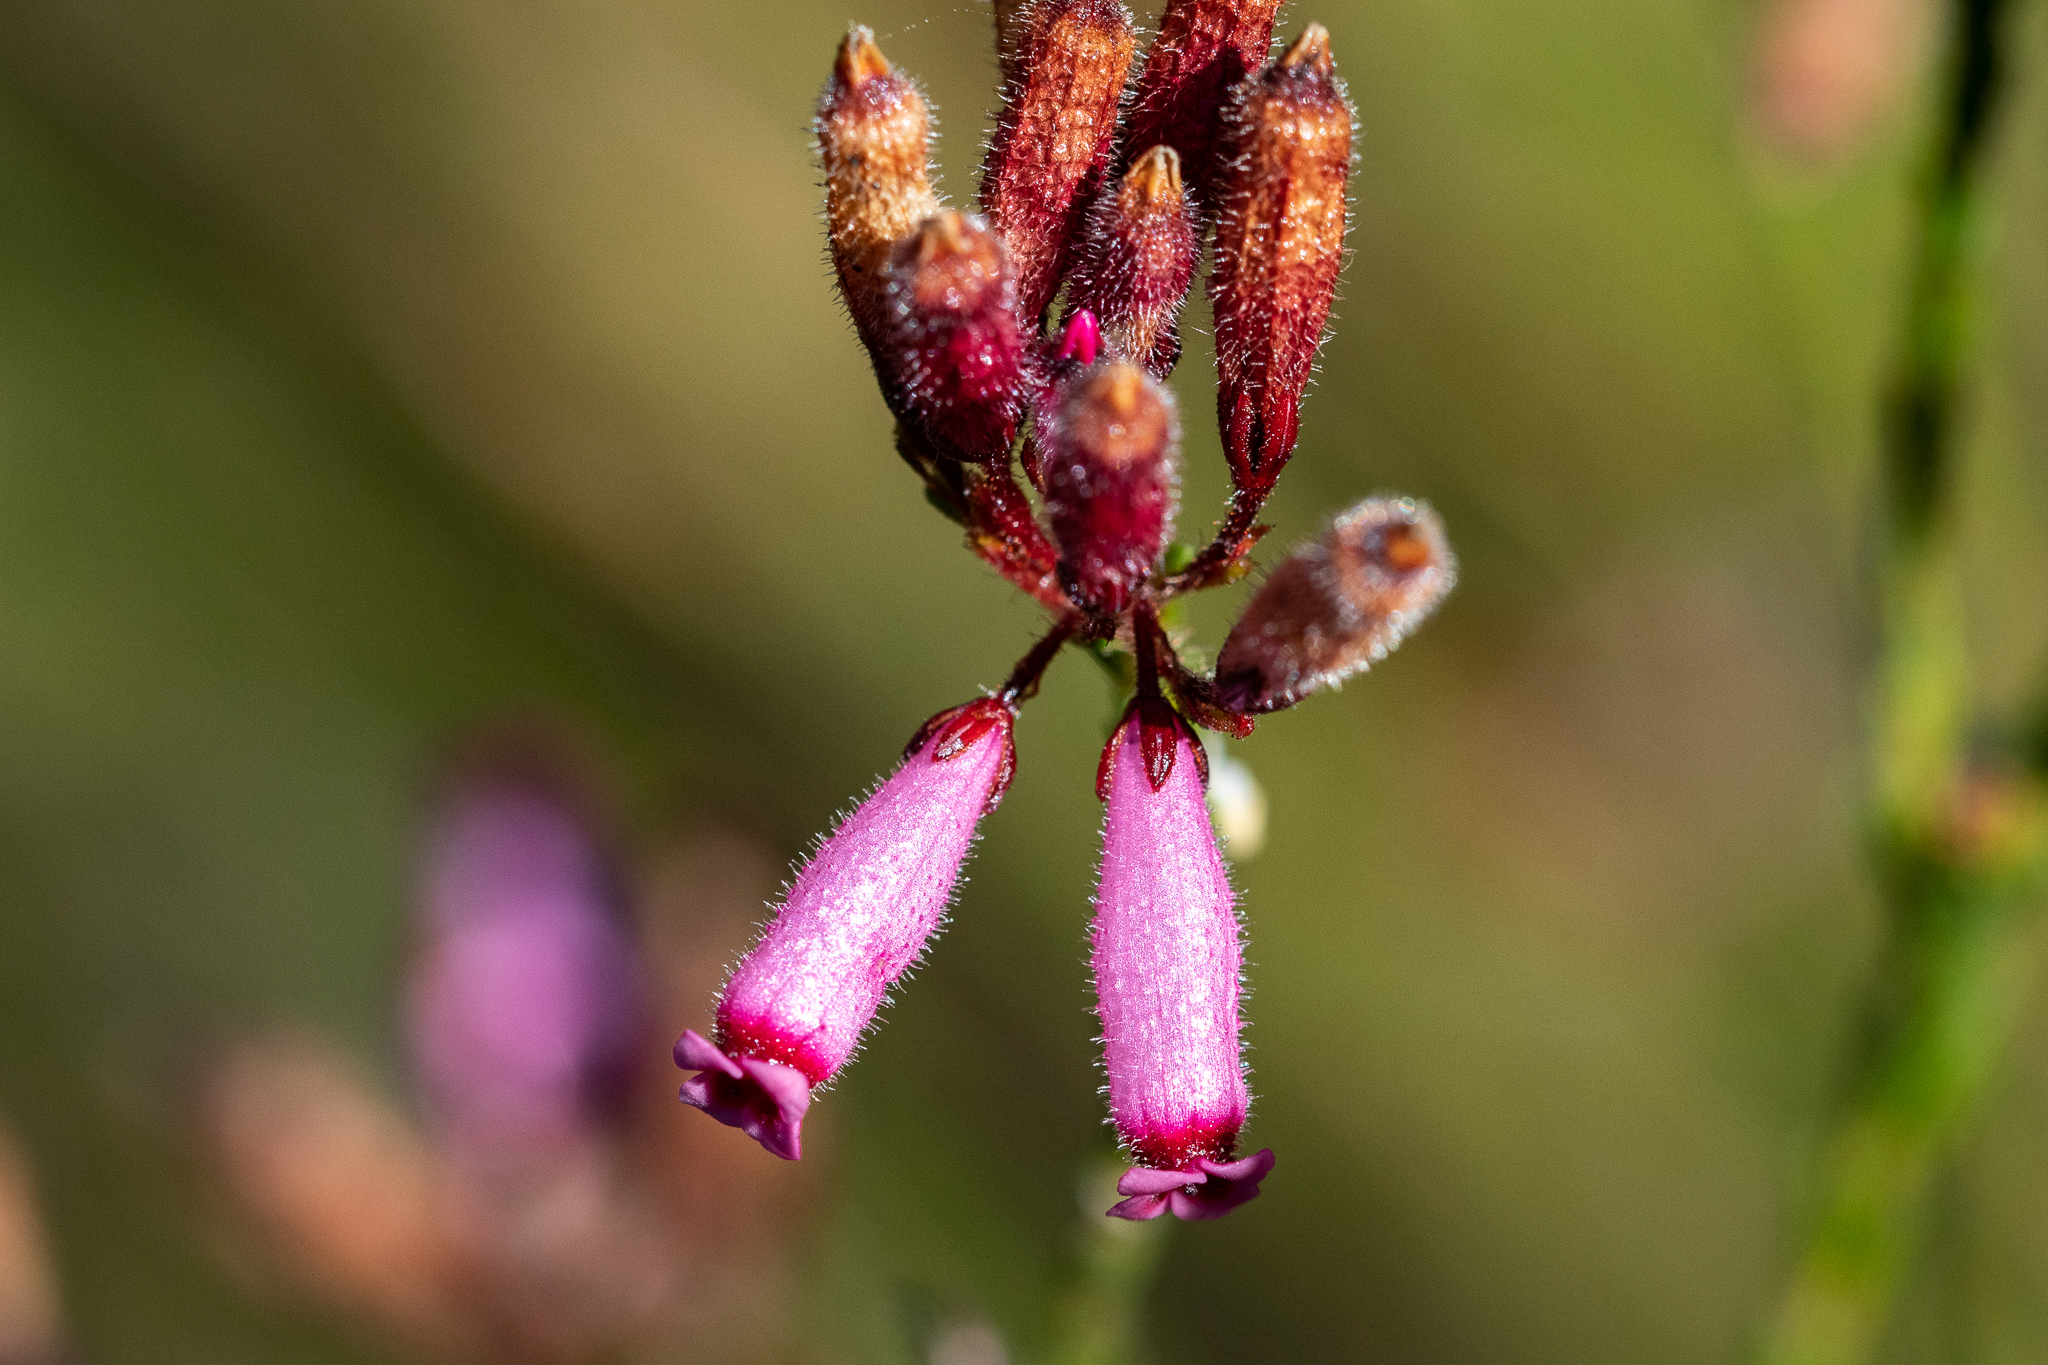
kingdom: Plantae
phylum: Tracheophyta
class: Magnoliopsida
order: Ericales
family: Ericaceae
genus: Erica
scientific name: Erica cristata
